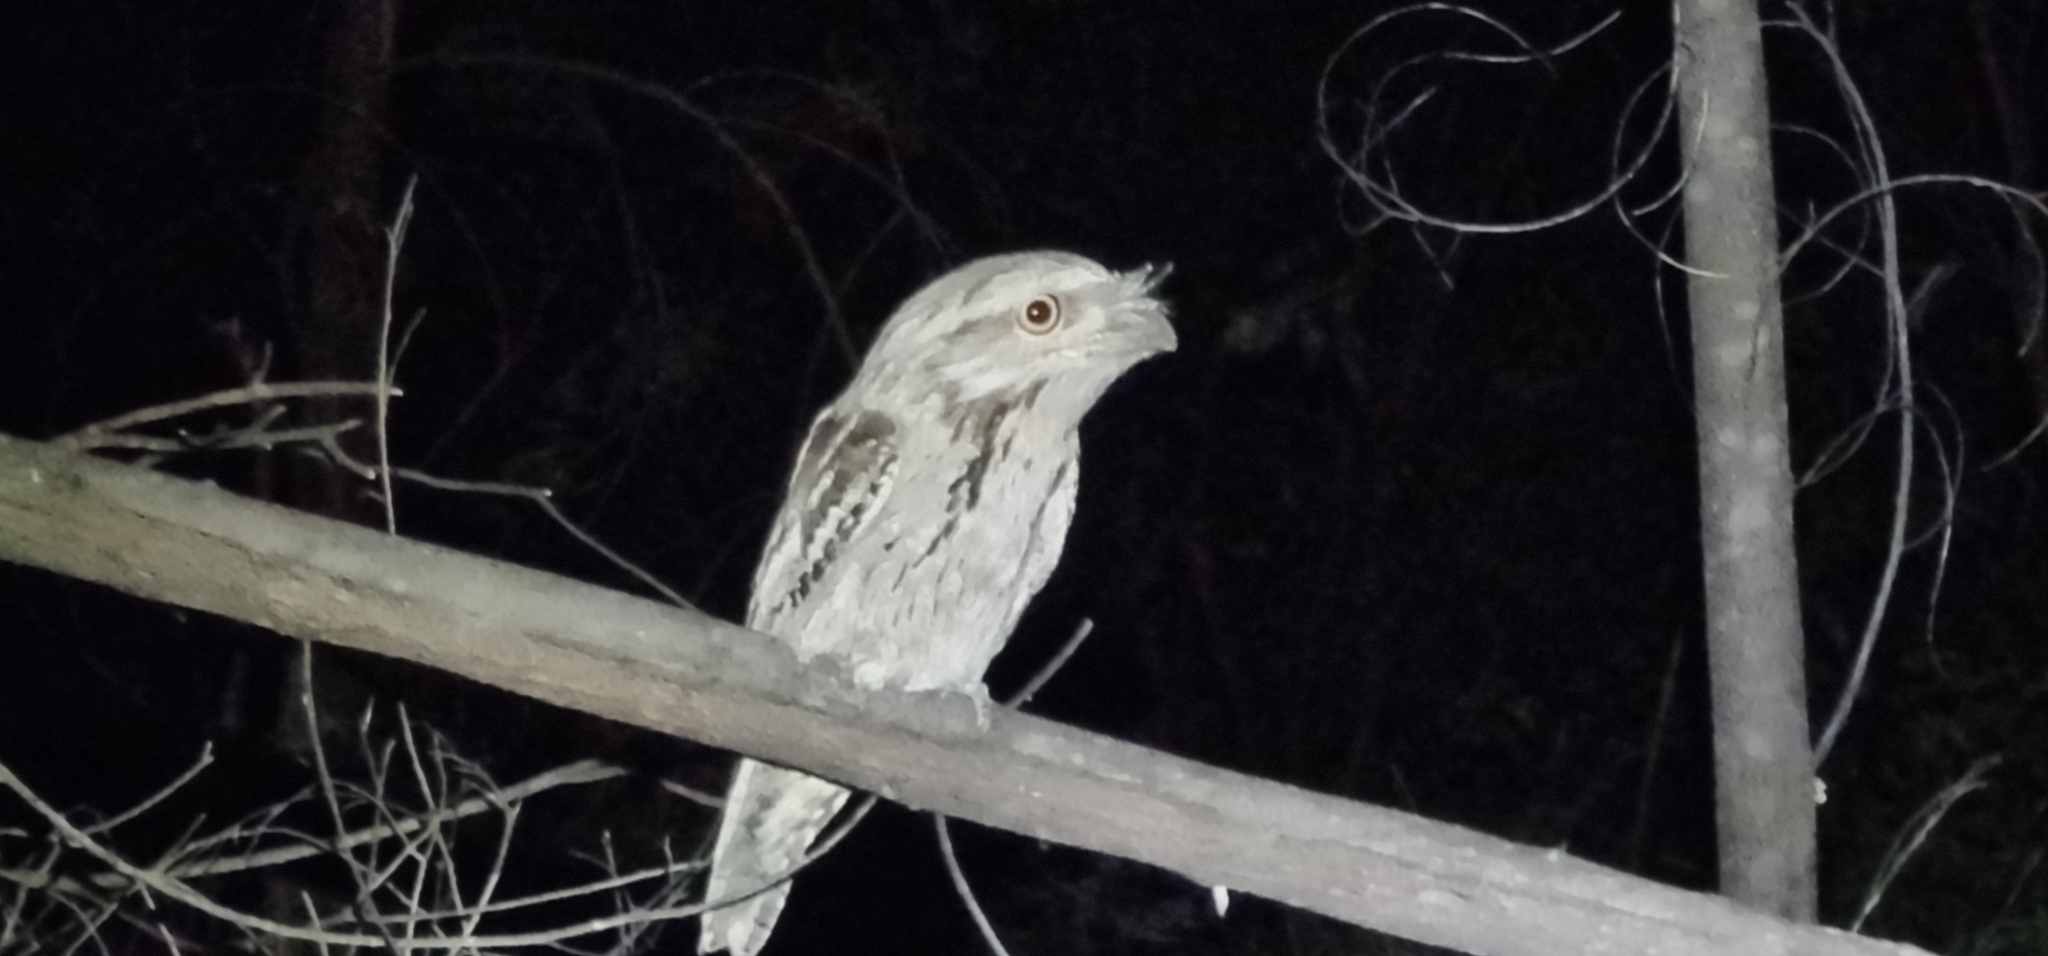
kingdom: Animalia
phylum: Chordata
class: Aves
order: Caprimulgiformes
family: Podargidae
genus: Podargus
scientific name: Podargus strigoides
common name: Tawny frogmouth
